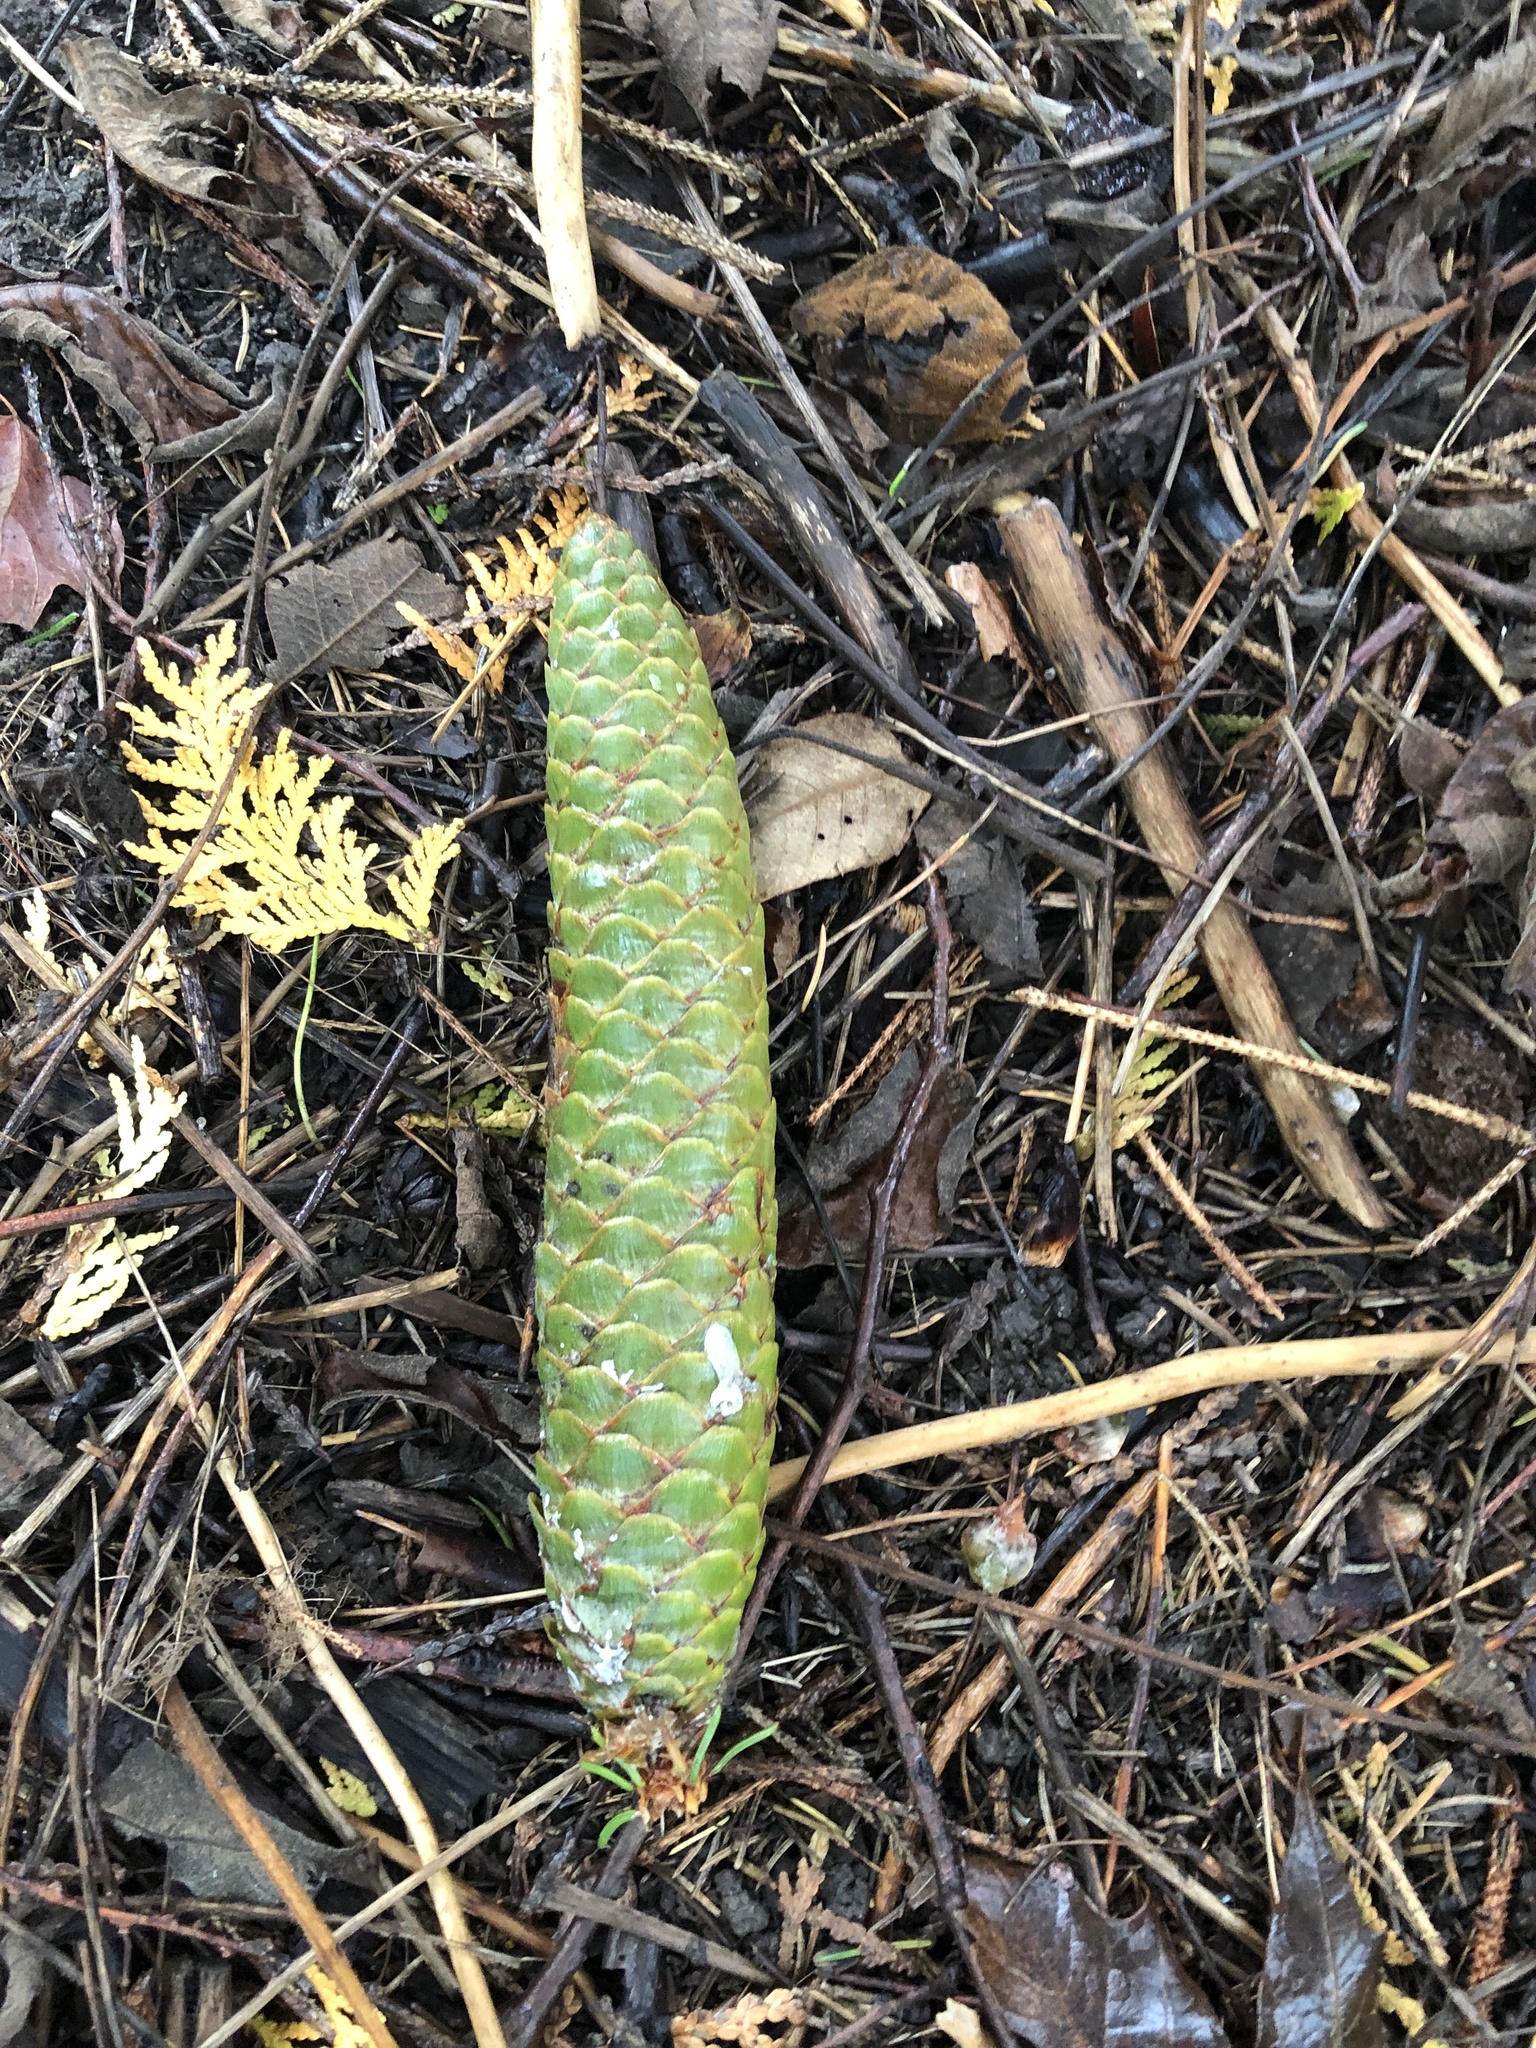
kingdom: Plantae
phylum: Tracheophyta
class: Pinopsida
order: Pinales
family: Pinaceae
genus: Picea
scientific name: Picea abies
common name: Norway spruce
